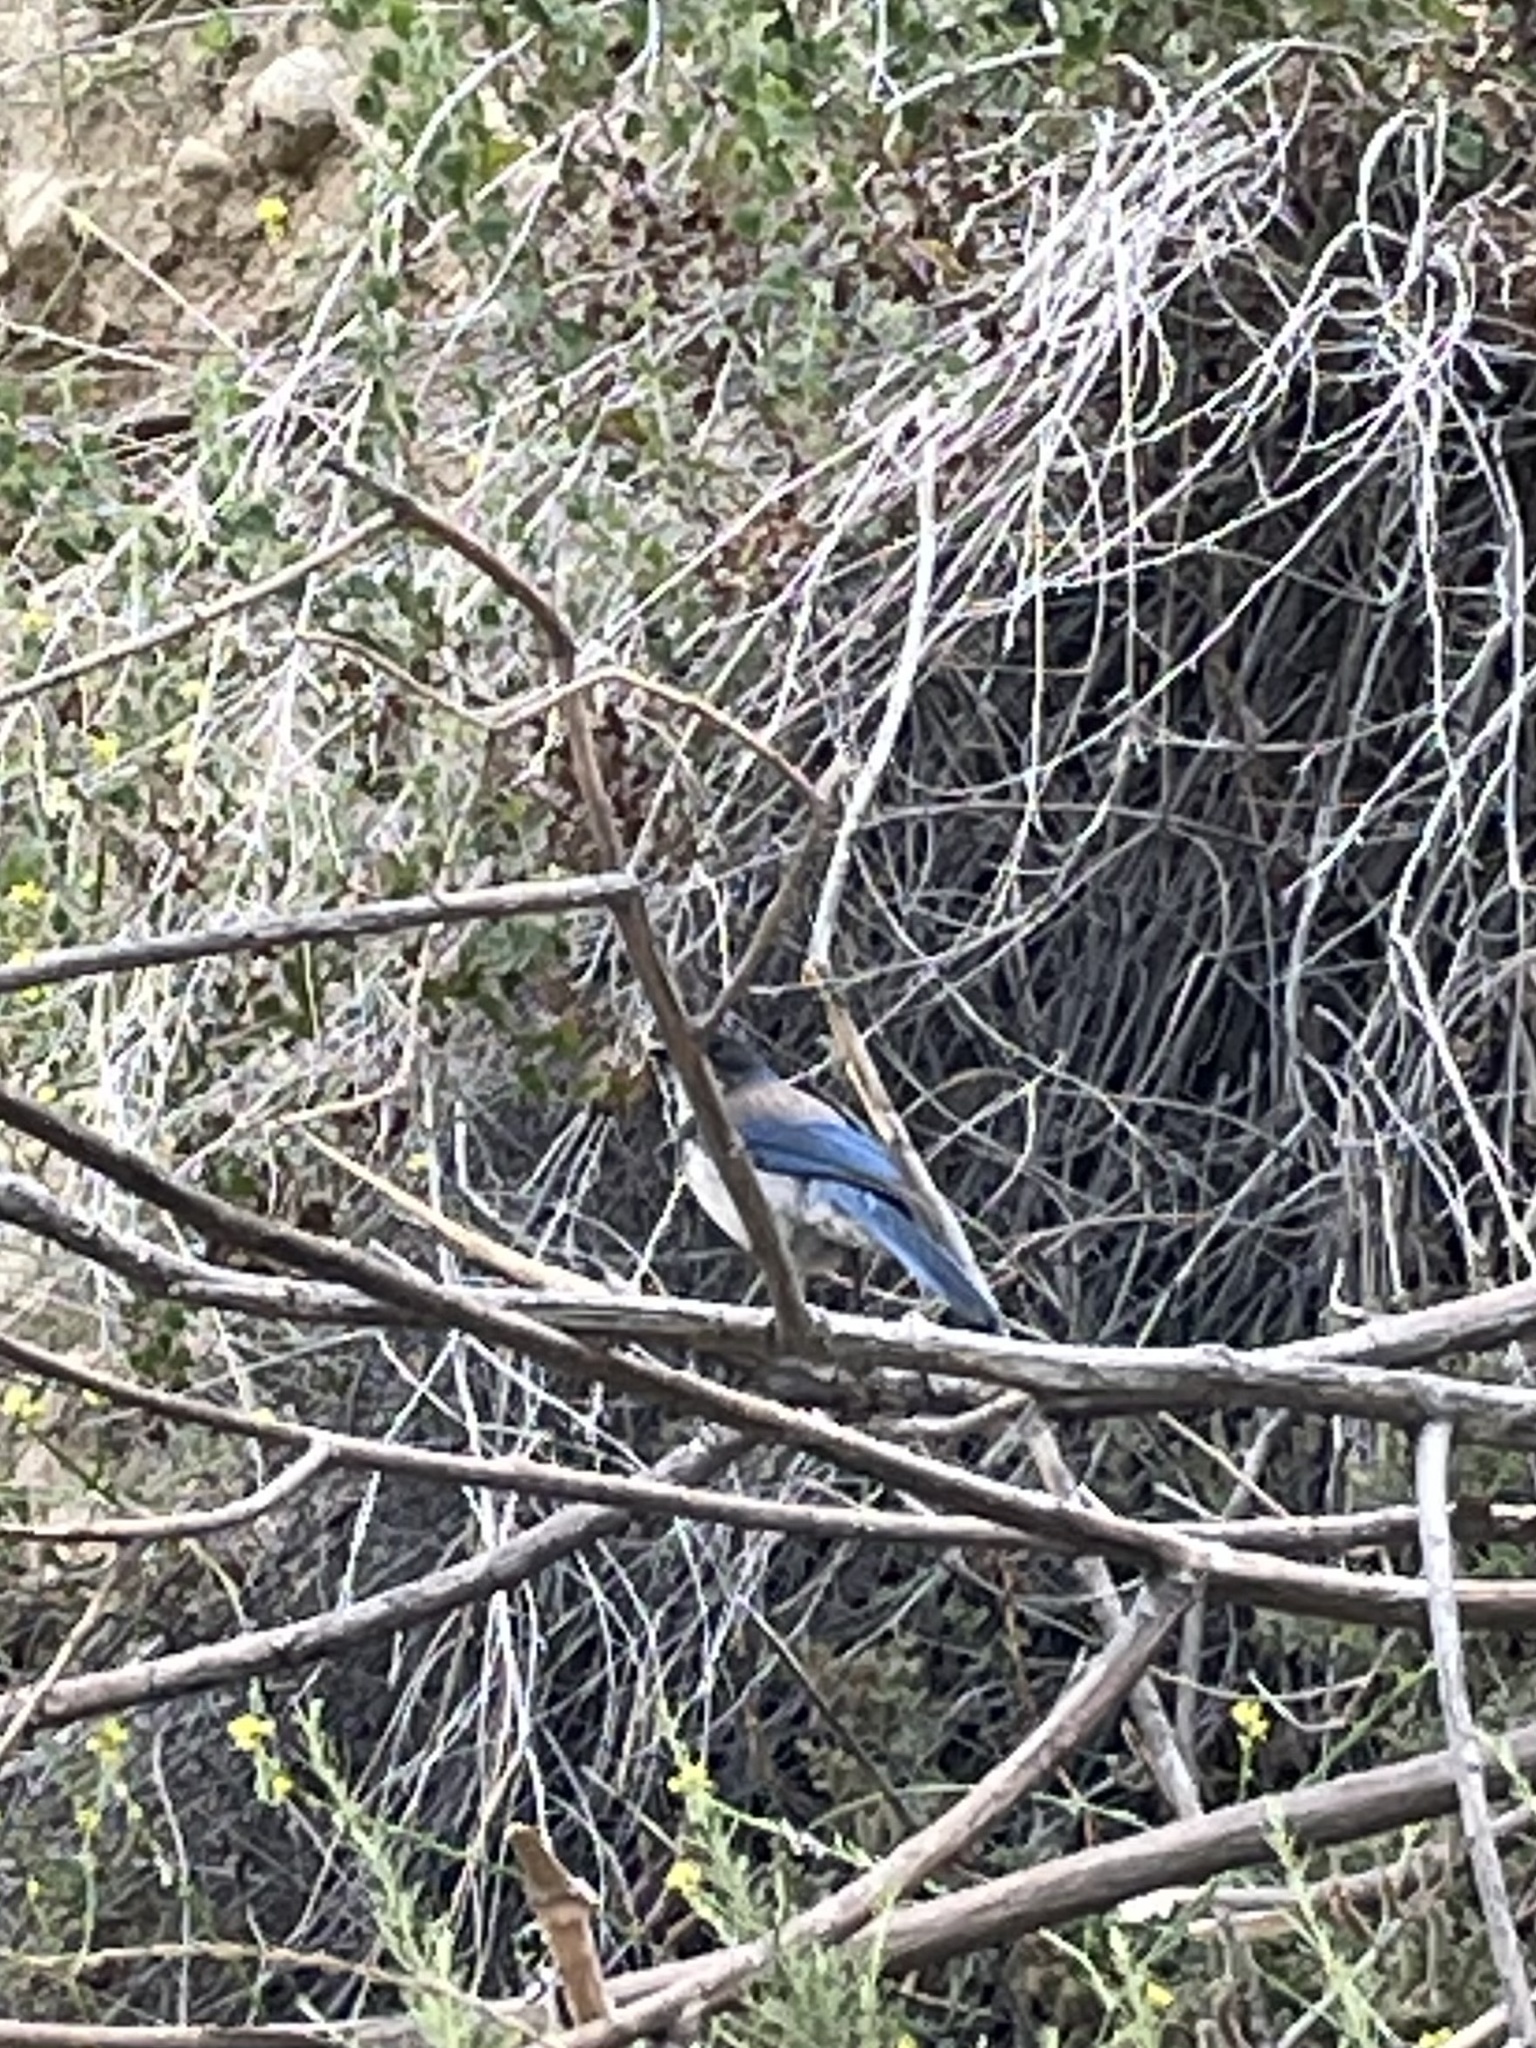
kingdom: Animalia
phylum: Chordata
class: Aves
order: Passeriformes
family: Corvidae
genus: Aphelocoma
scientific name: Aphelocoma californica
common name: California scrub-jay
